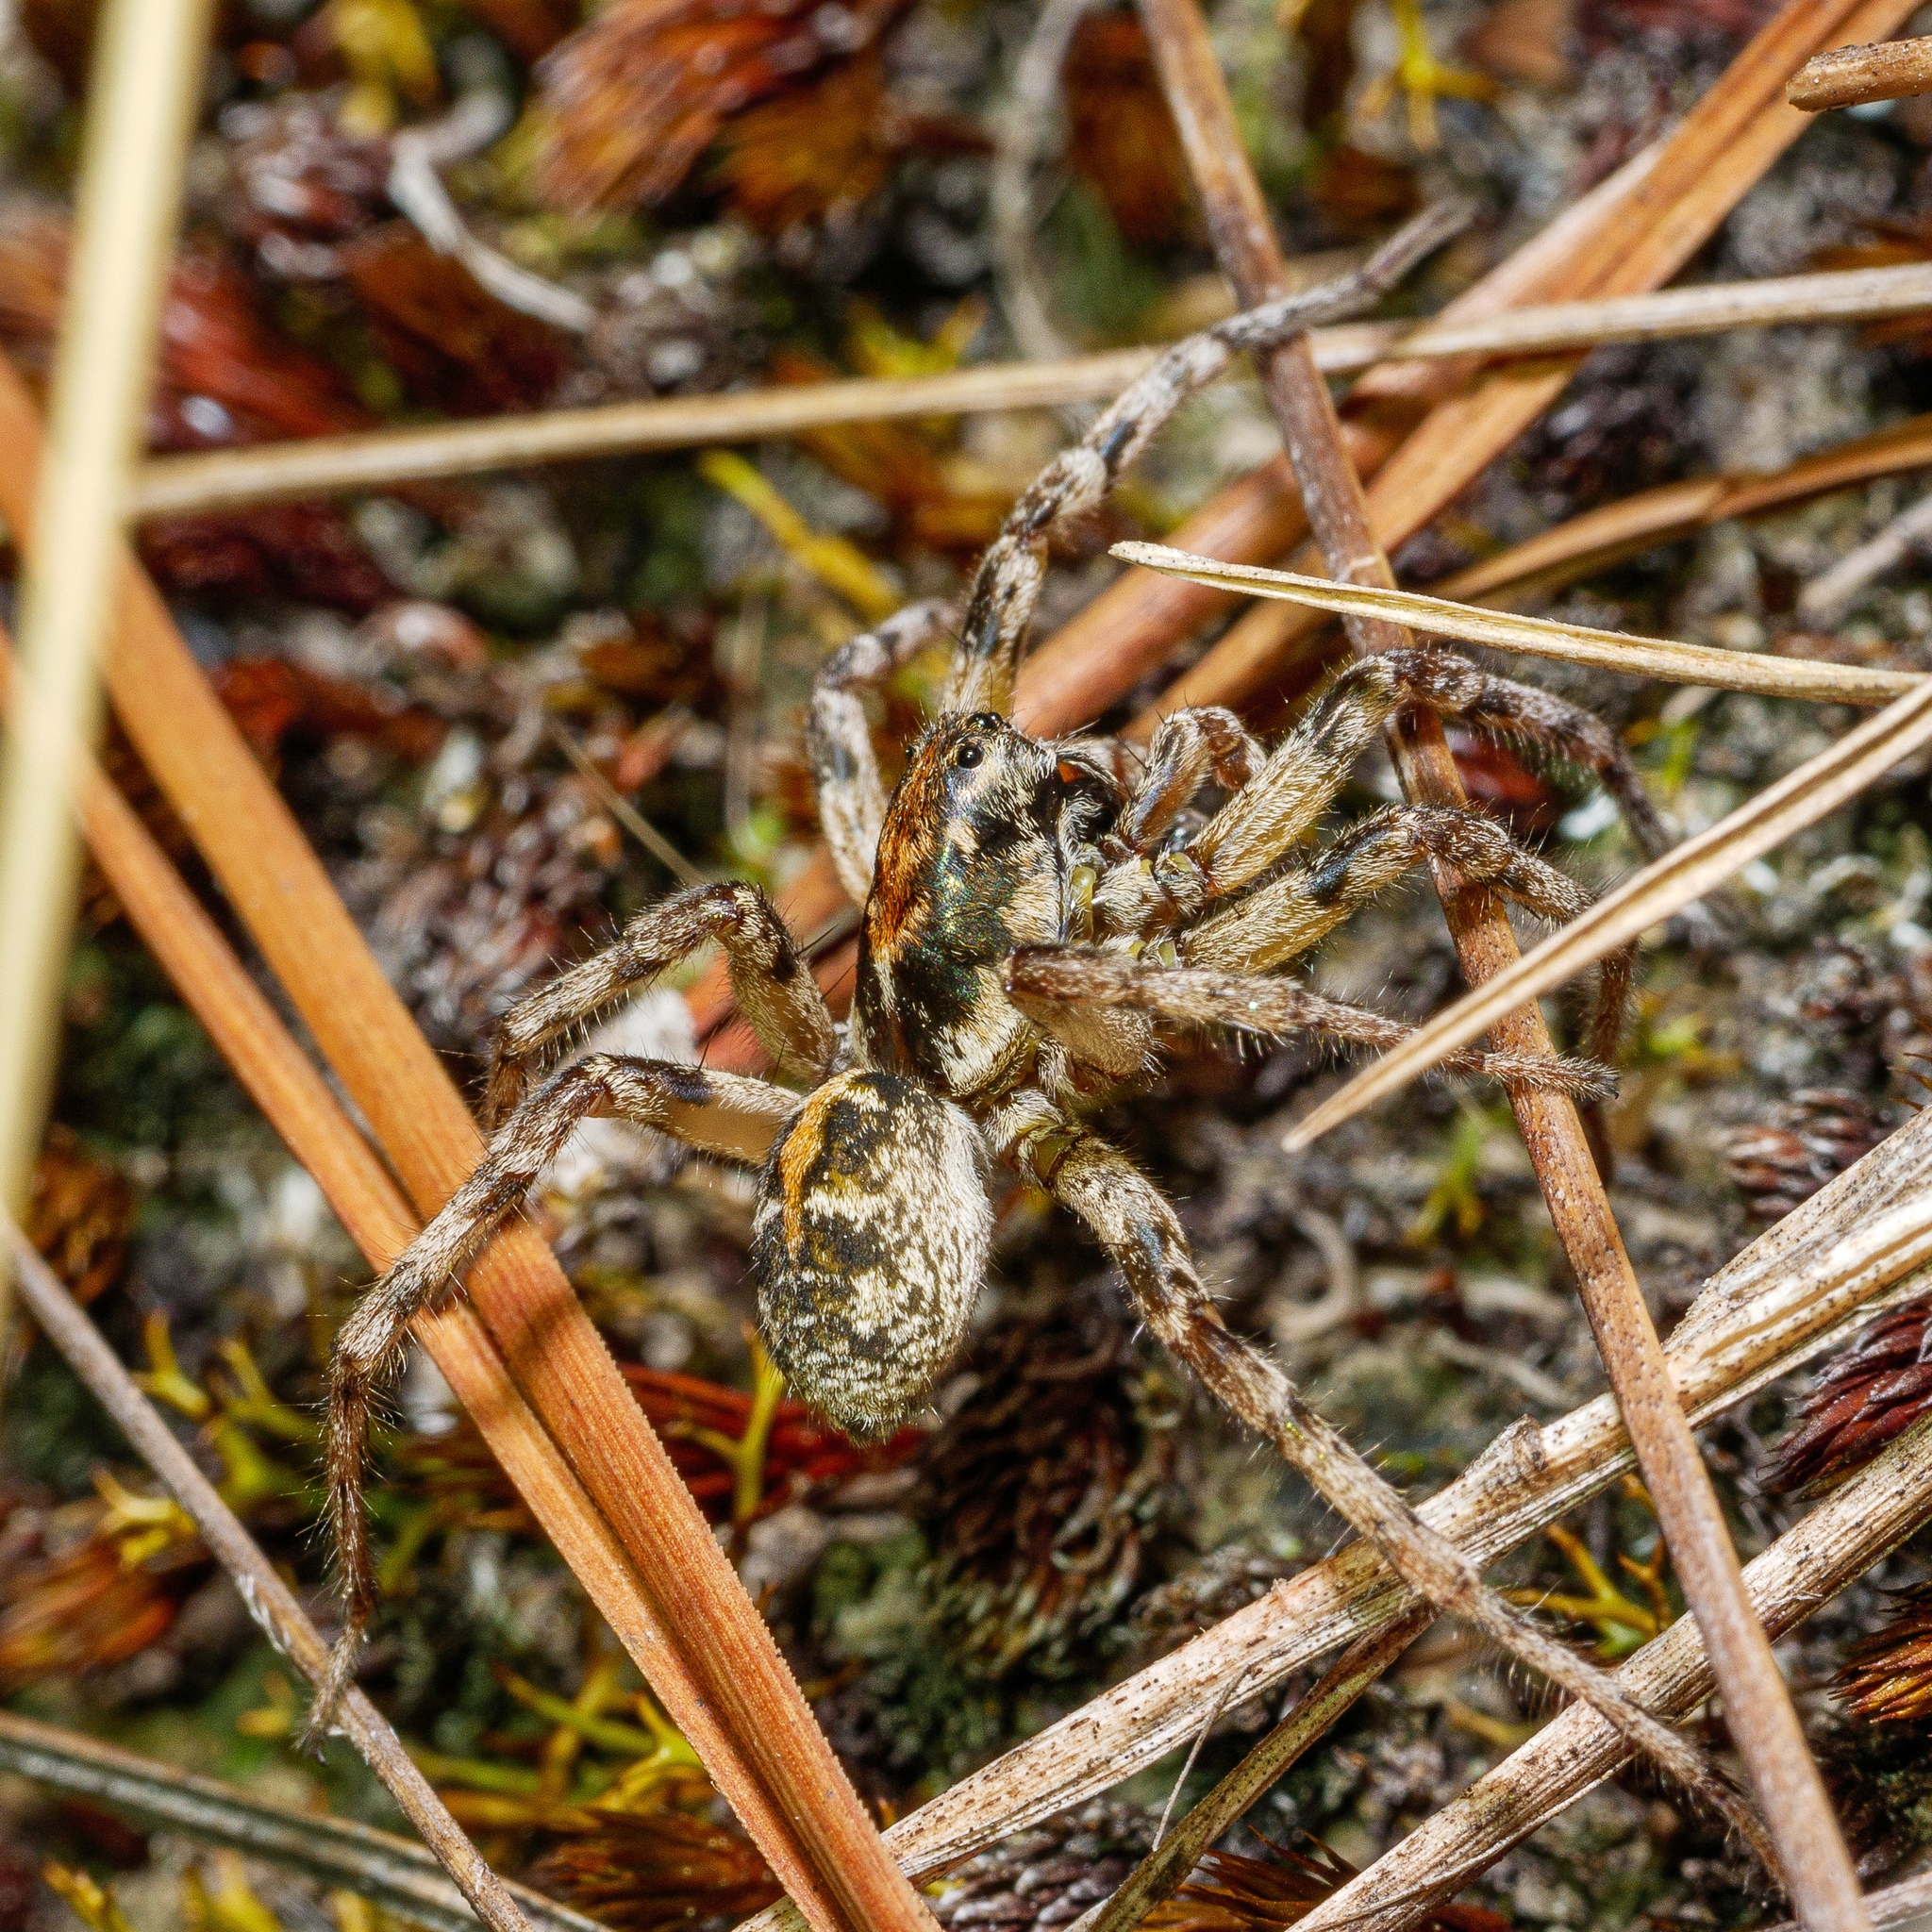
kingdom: Animalia
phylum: Arthropoda
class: Arachnida
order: Araneae
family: Lycosidae
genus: Notocosa
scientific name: Notocosa bellicosa
